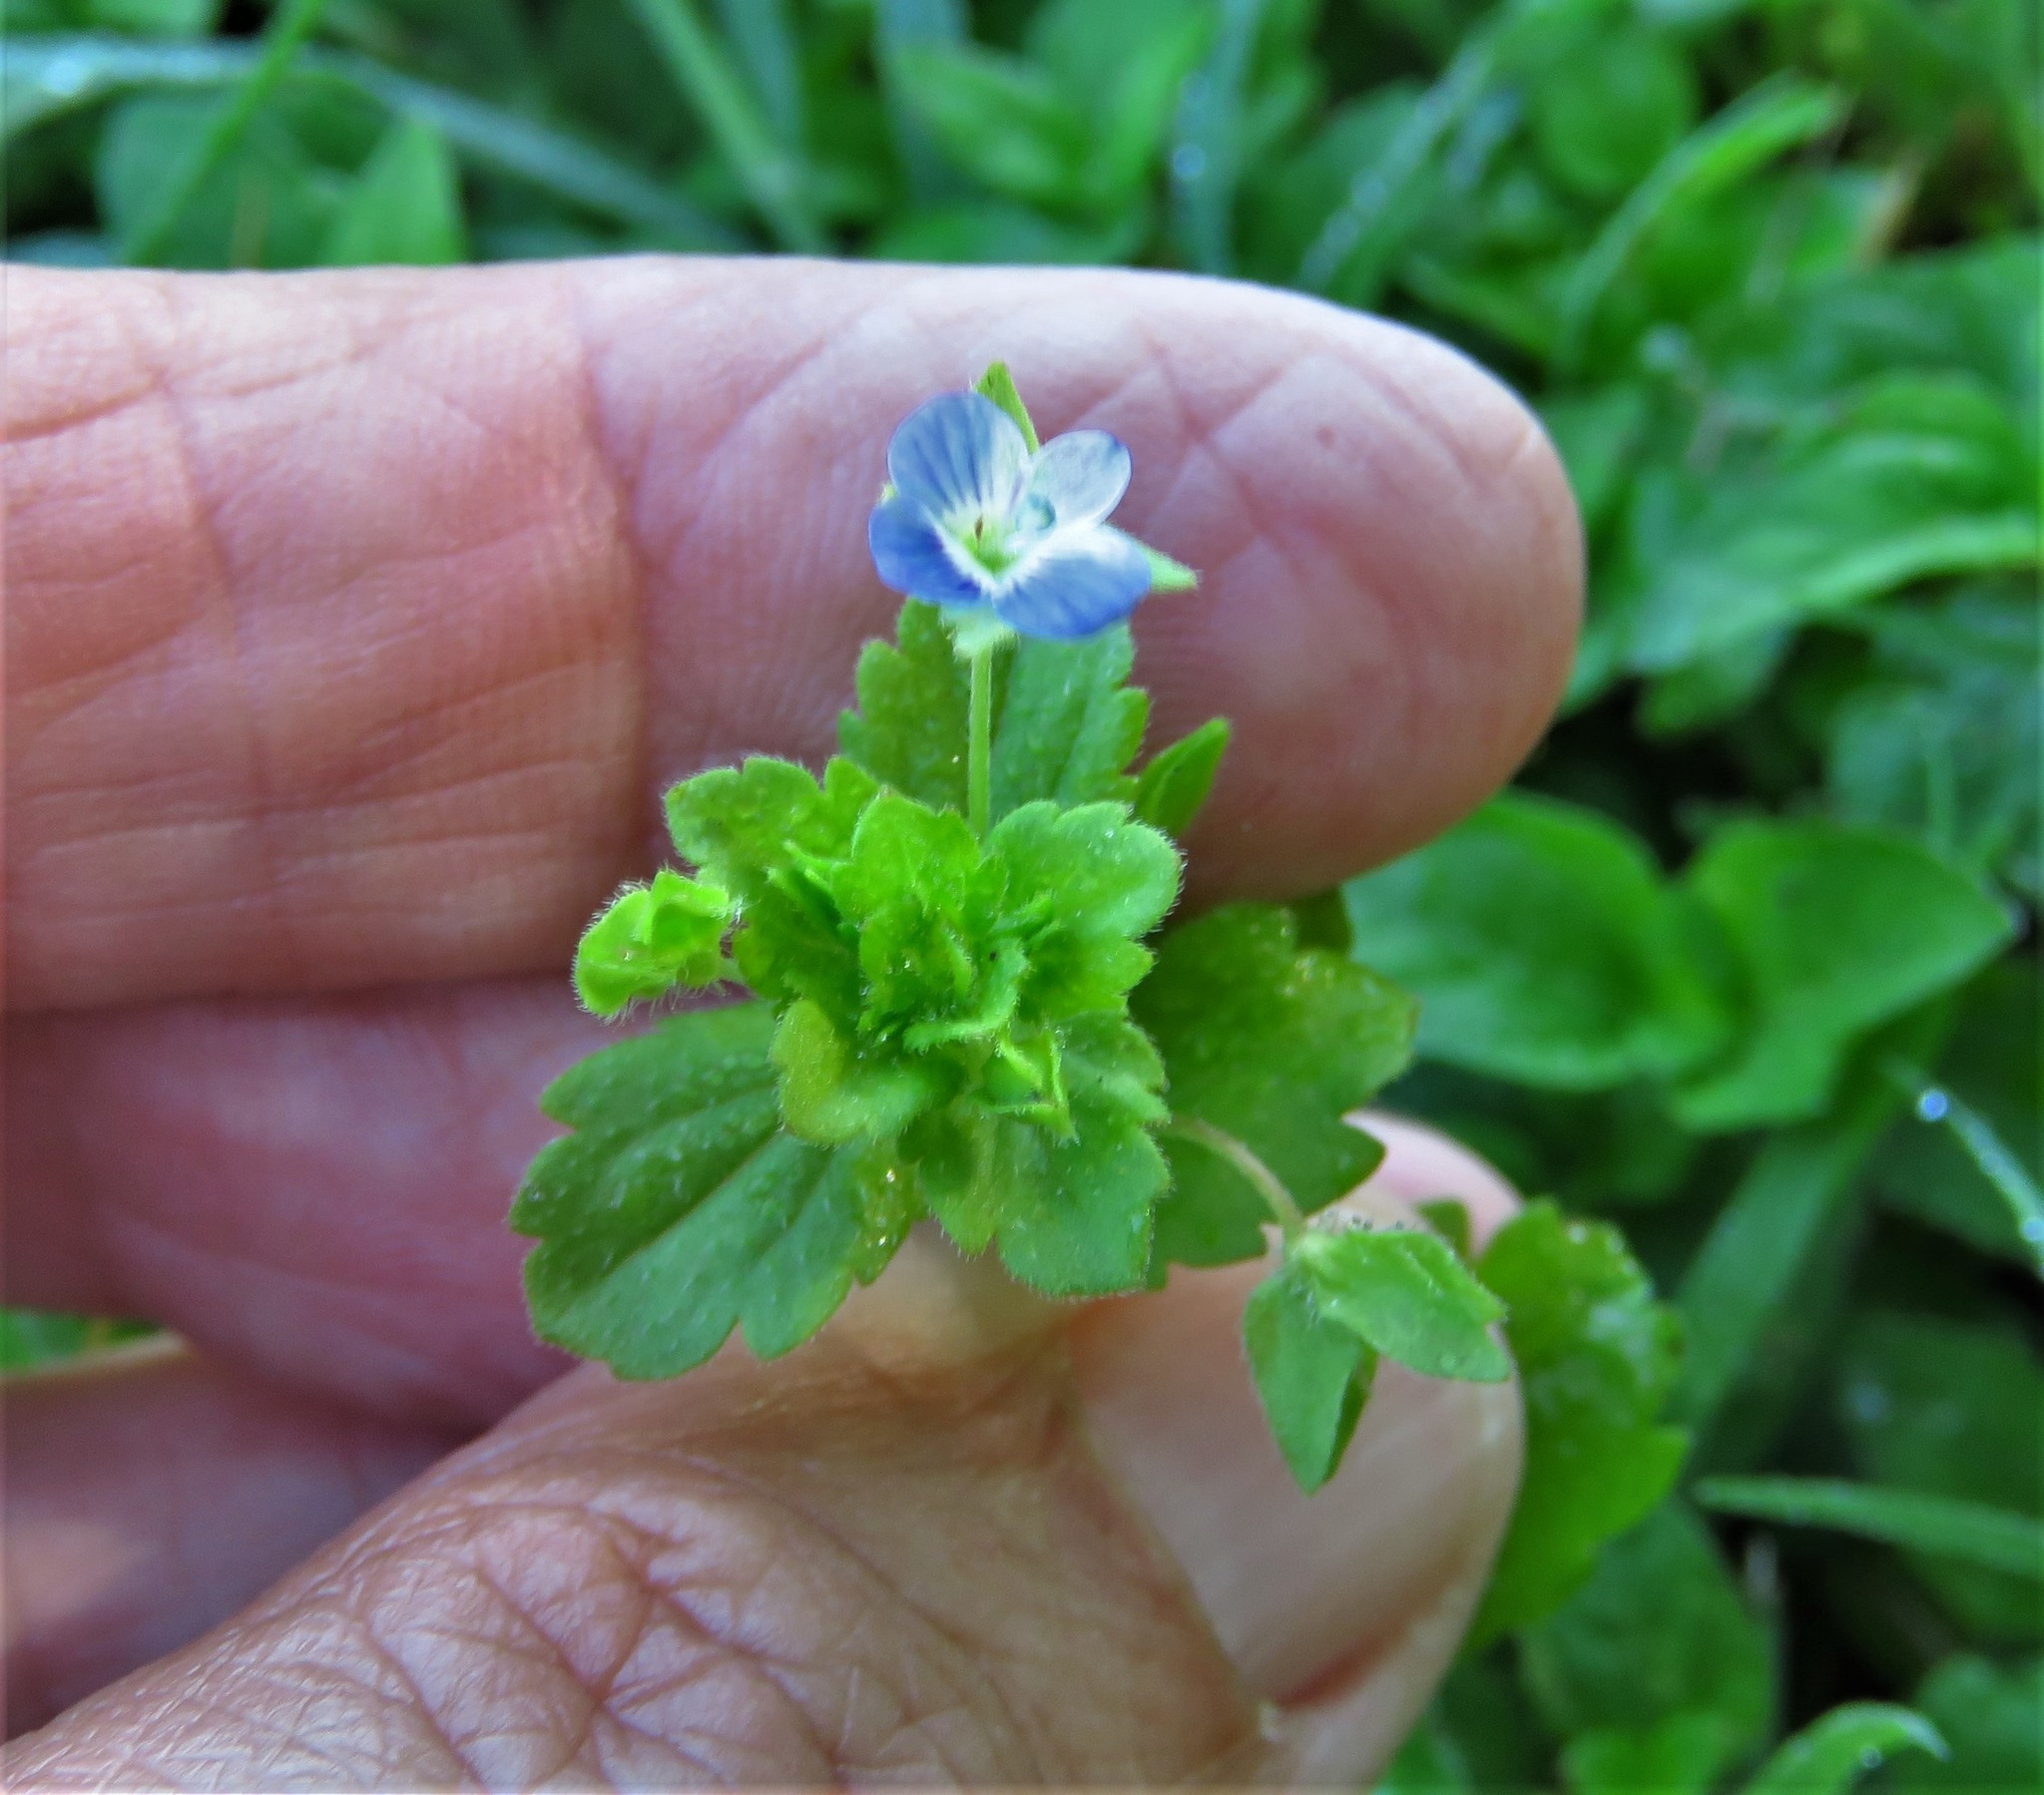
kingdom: Plantae
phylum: Tracheophyta
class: Magnoliopsida
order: Lamiales
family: Plantaginaceae
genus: Veronica
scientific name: Veronica persica
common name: Common field-speedwell
